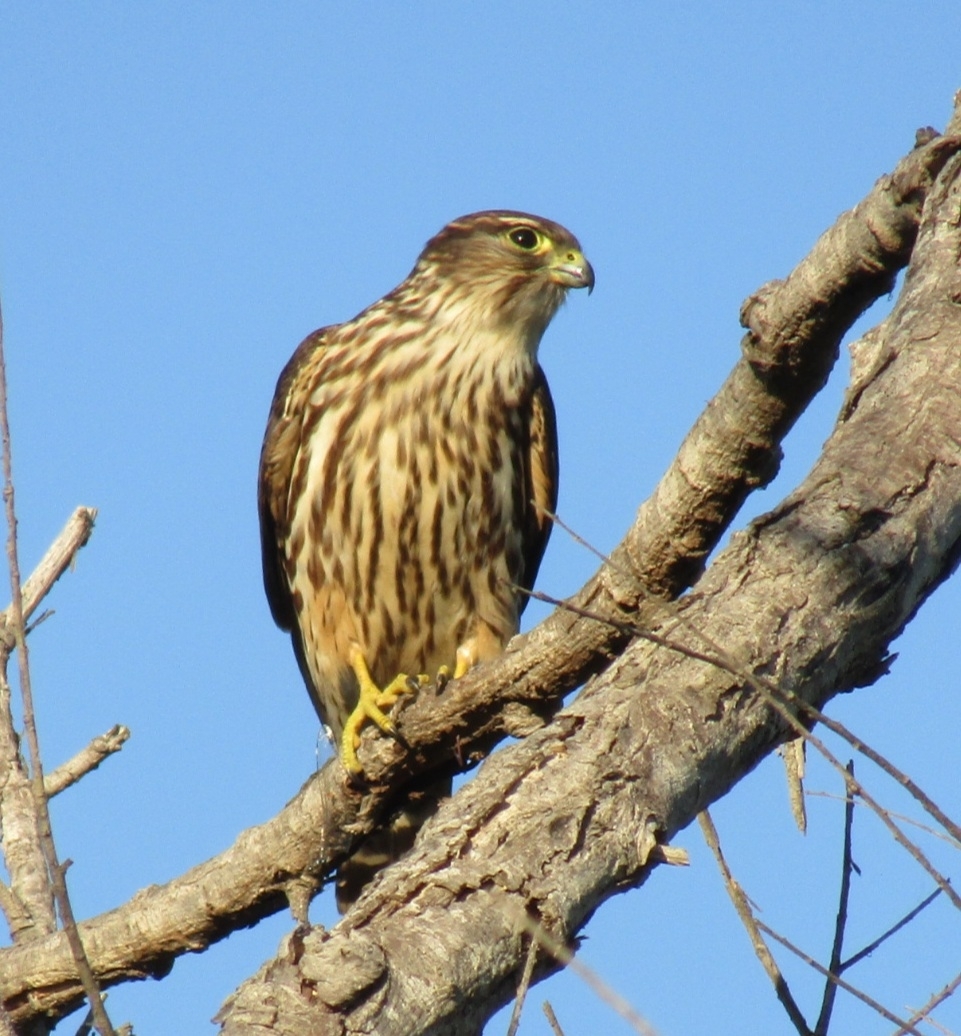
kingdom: Animalia
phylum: Chordata
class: Aves
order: Falconiformes
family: Falconidae
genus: Falco
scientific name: Falco columbarius
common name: Merlin
